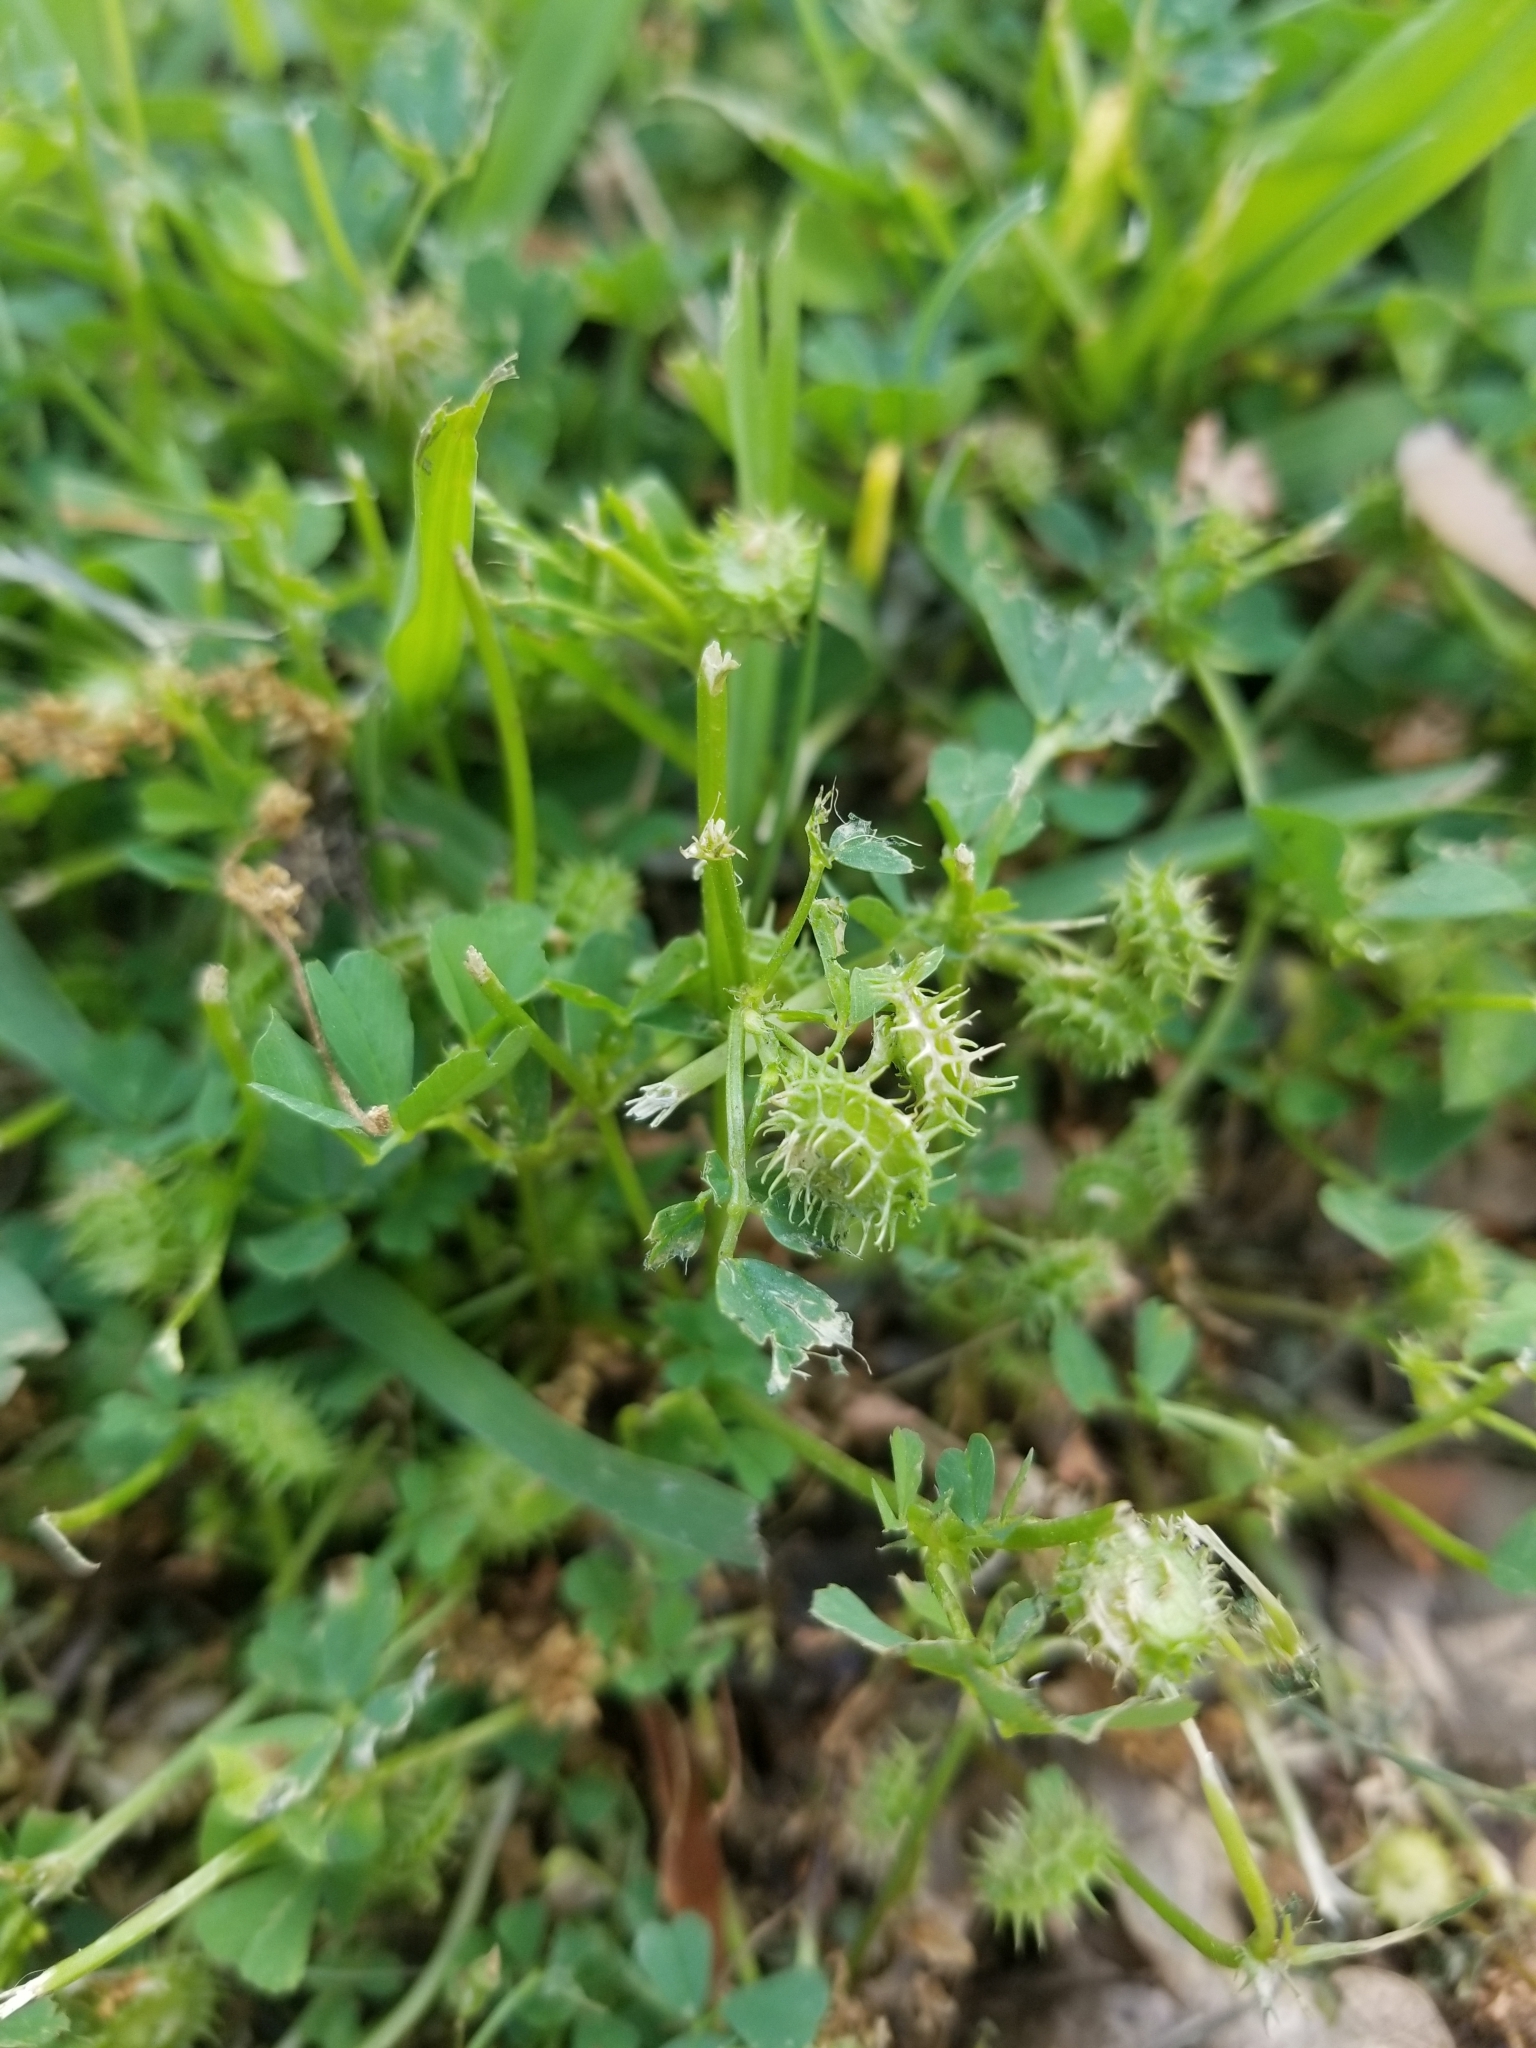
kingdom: Plantae
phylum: Tracheophyta
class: Magnoliopsida
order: Fabales
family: Fabaceae
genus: Medicago
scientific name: Medicago polymorpha
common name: Burclover
